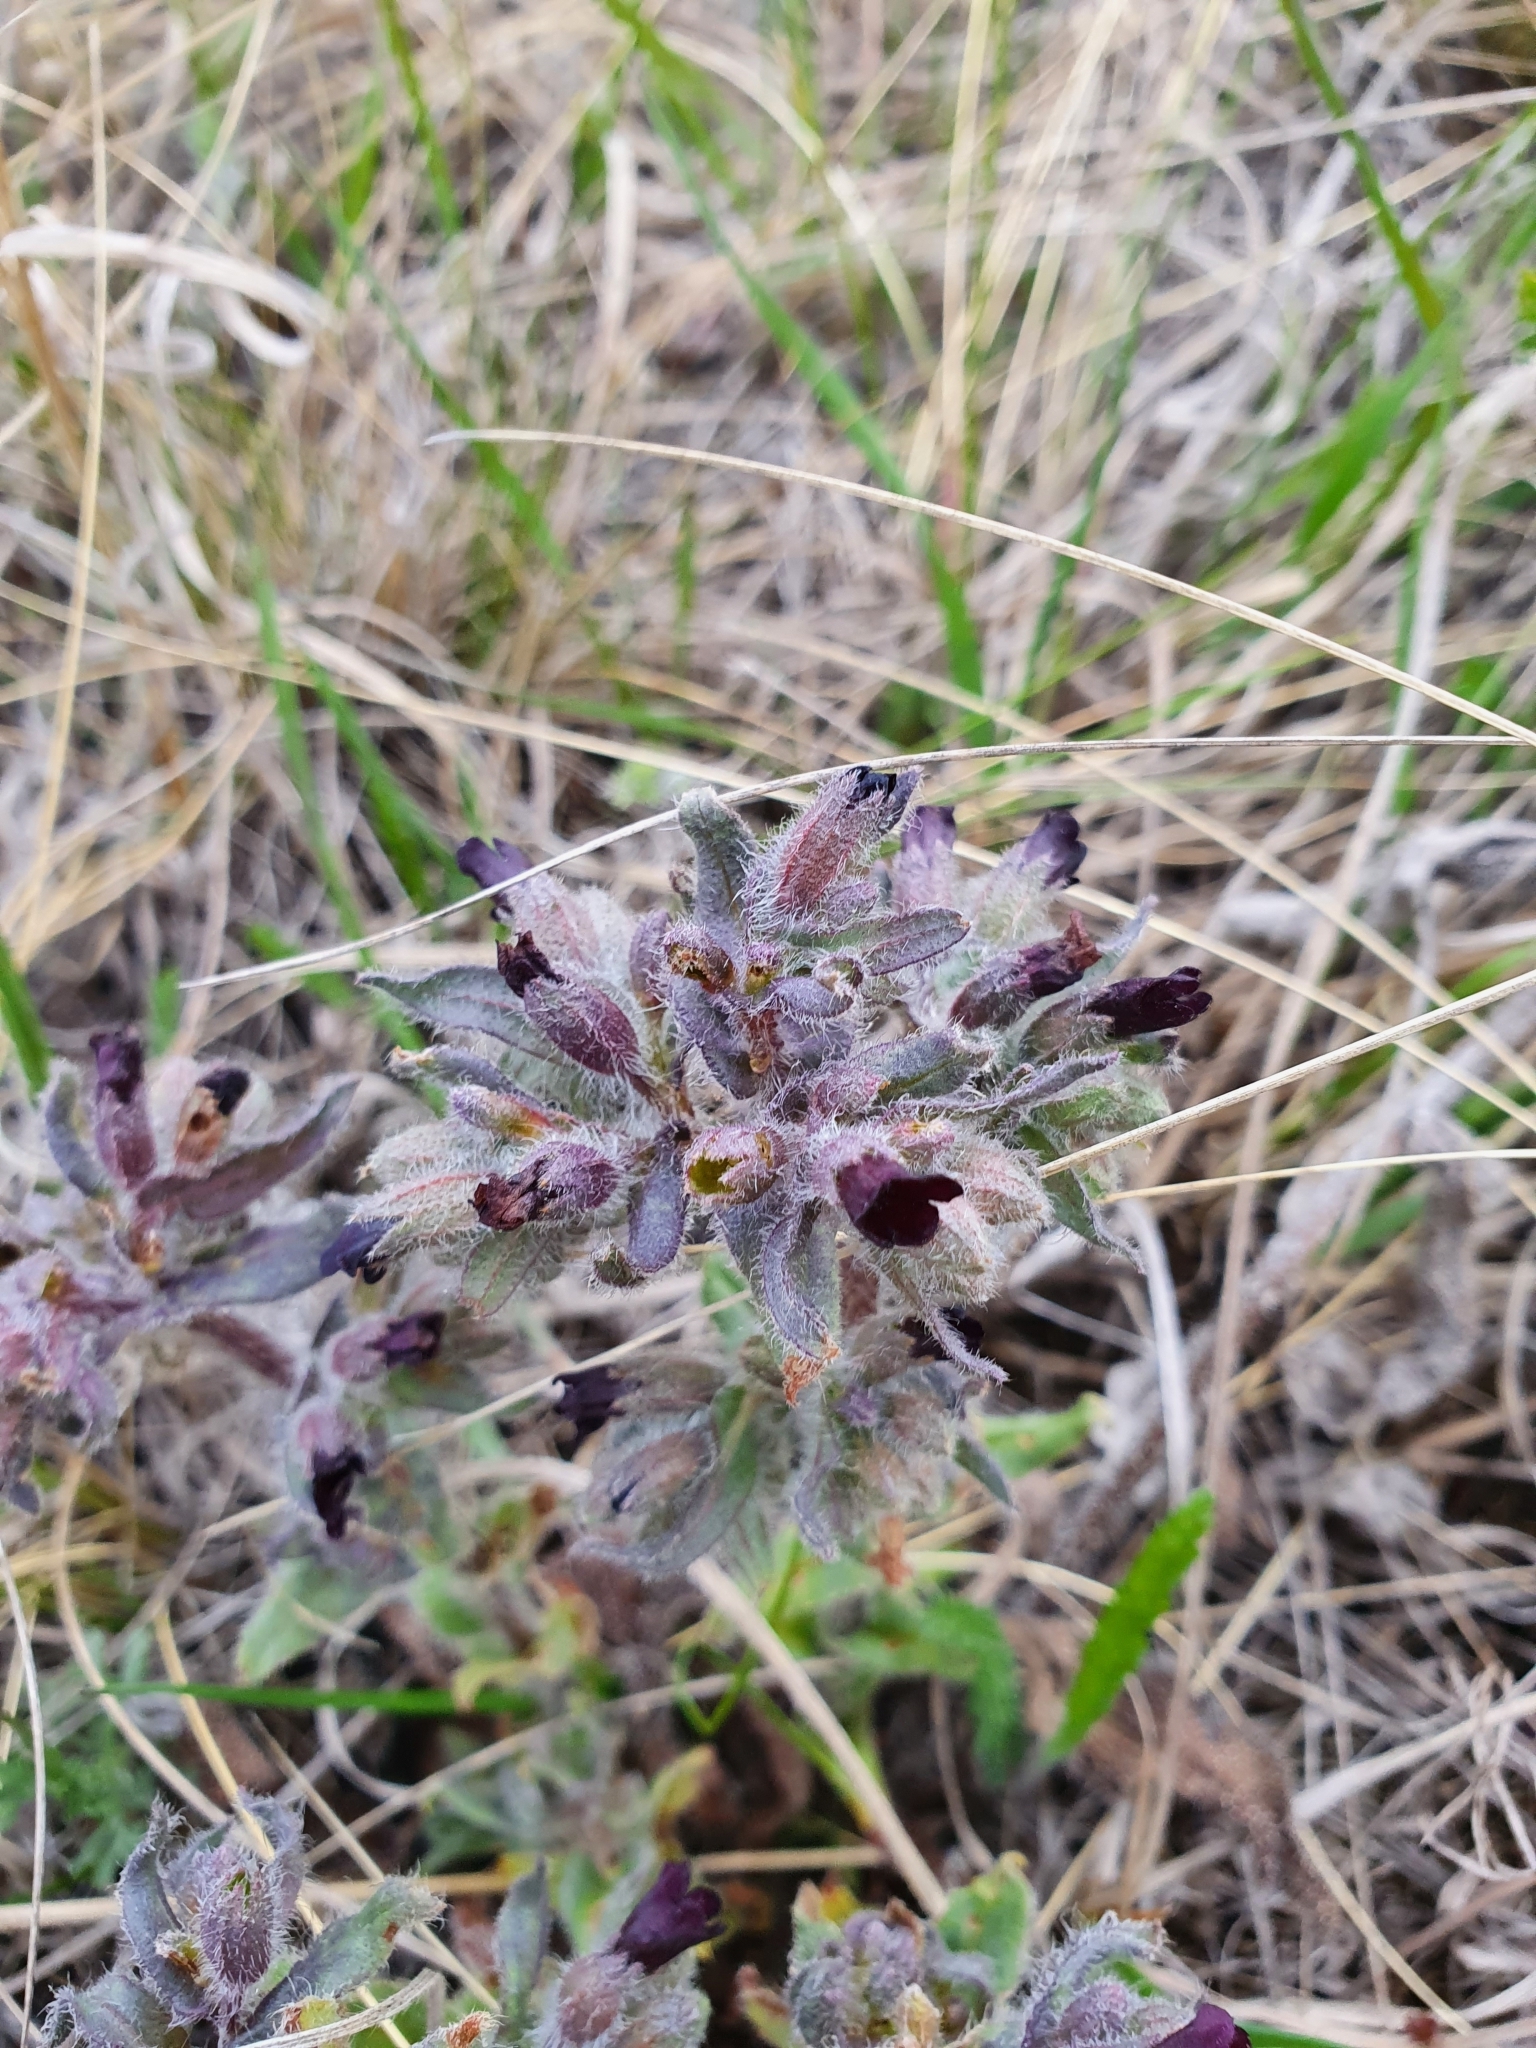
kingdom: Plantae
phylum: Tracheophyta
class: Magnoliopsida
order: Boraginales
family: Boraginaceae
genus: Nonea
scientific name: Nonea pulla
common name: Brown nonea
